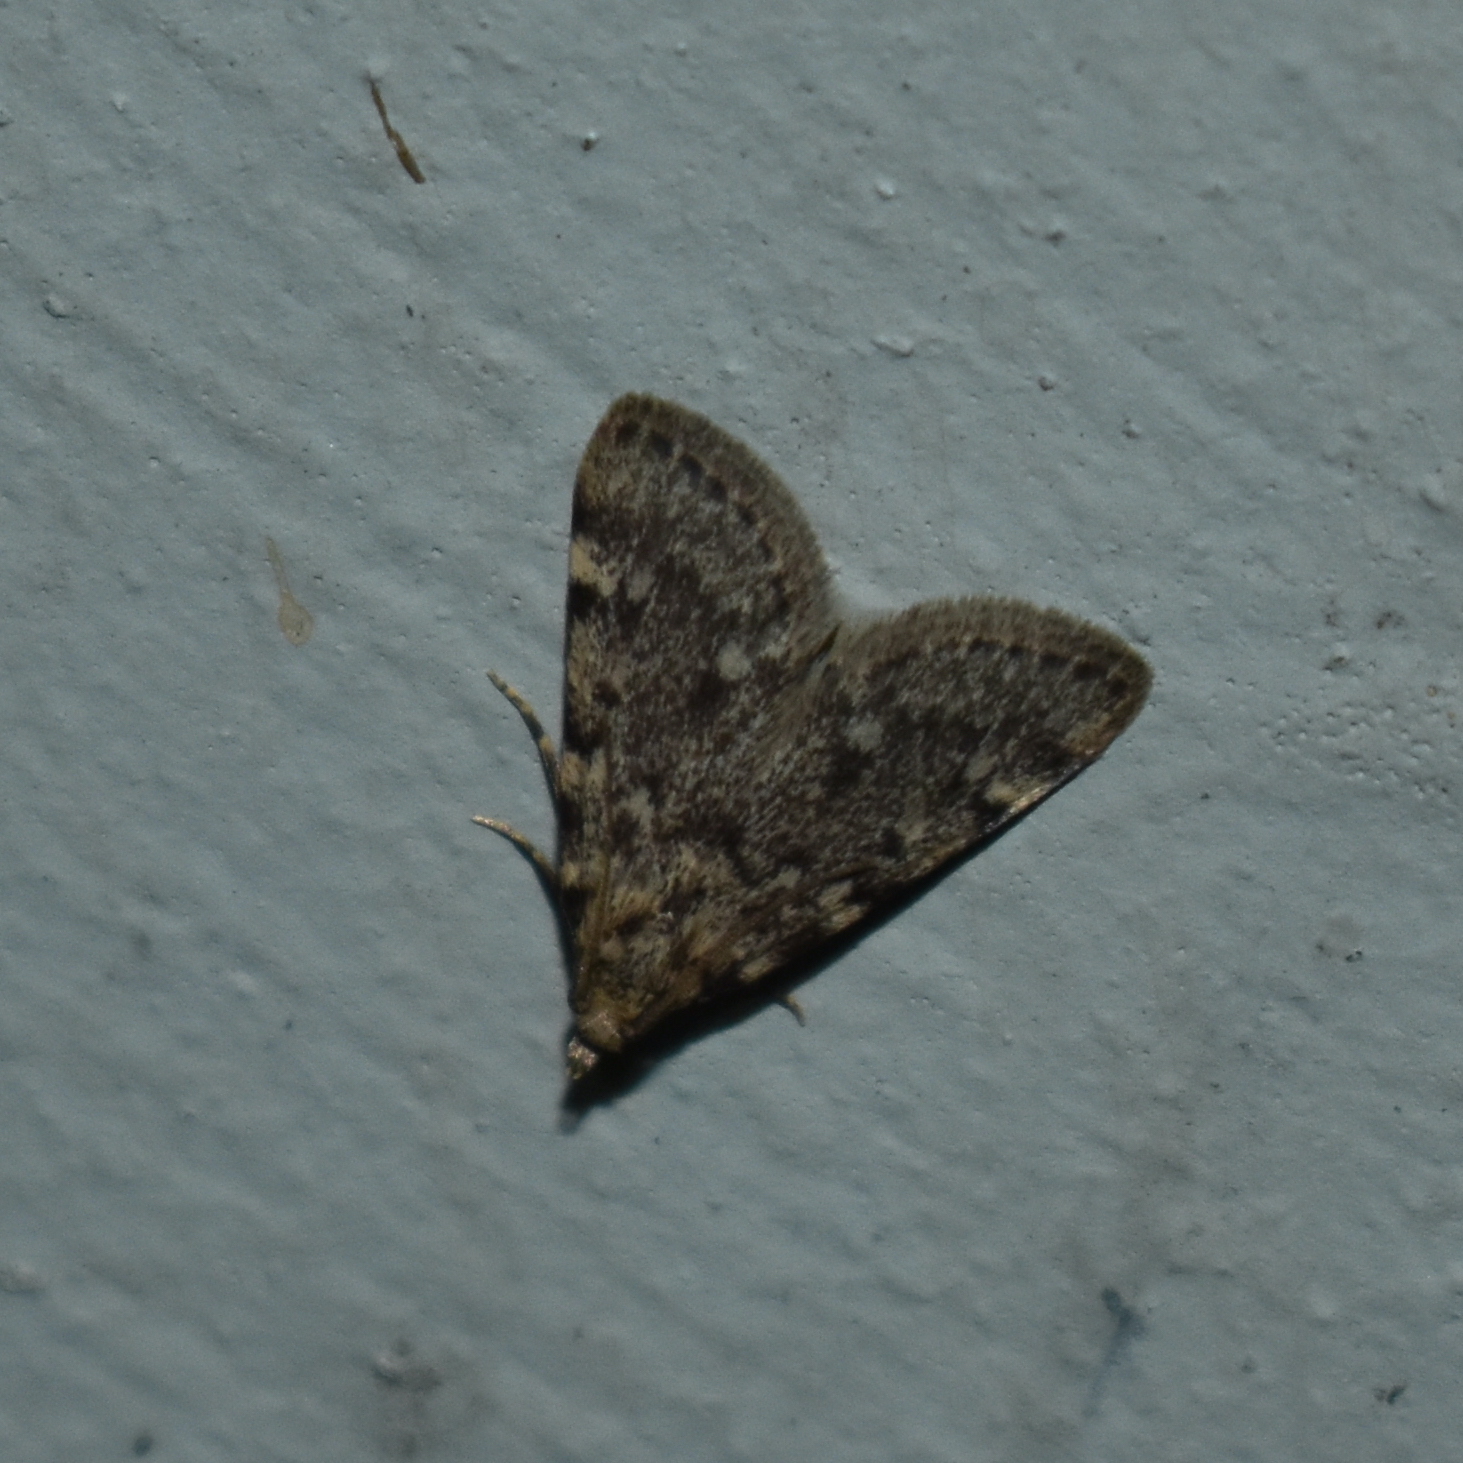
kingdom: Animalia
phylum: Arthropoda
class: Insecta
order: Lepidoptera
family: Pyralidae
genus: Aglossa
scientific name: Aglossa pinguinalis
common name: Large tabby
